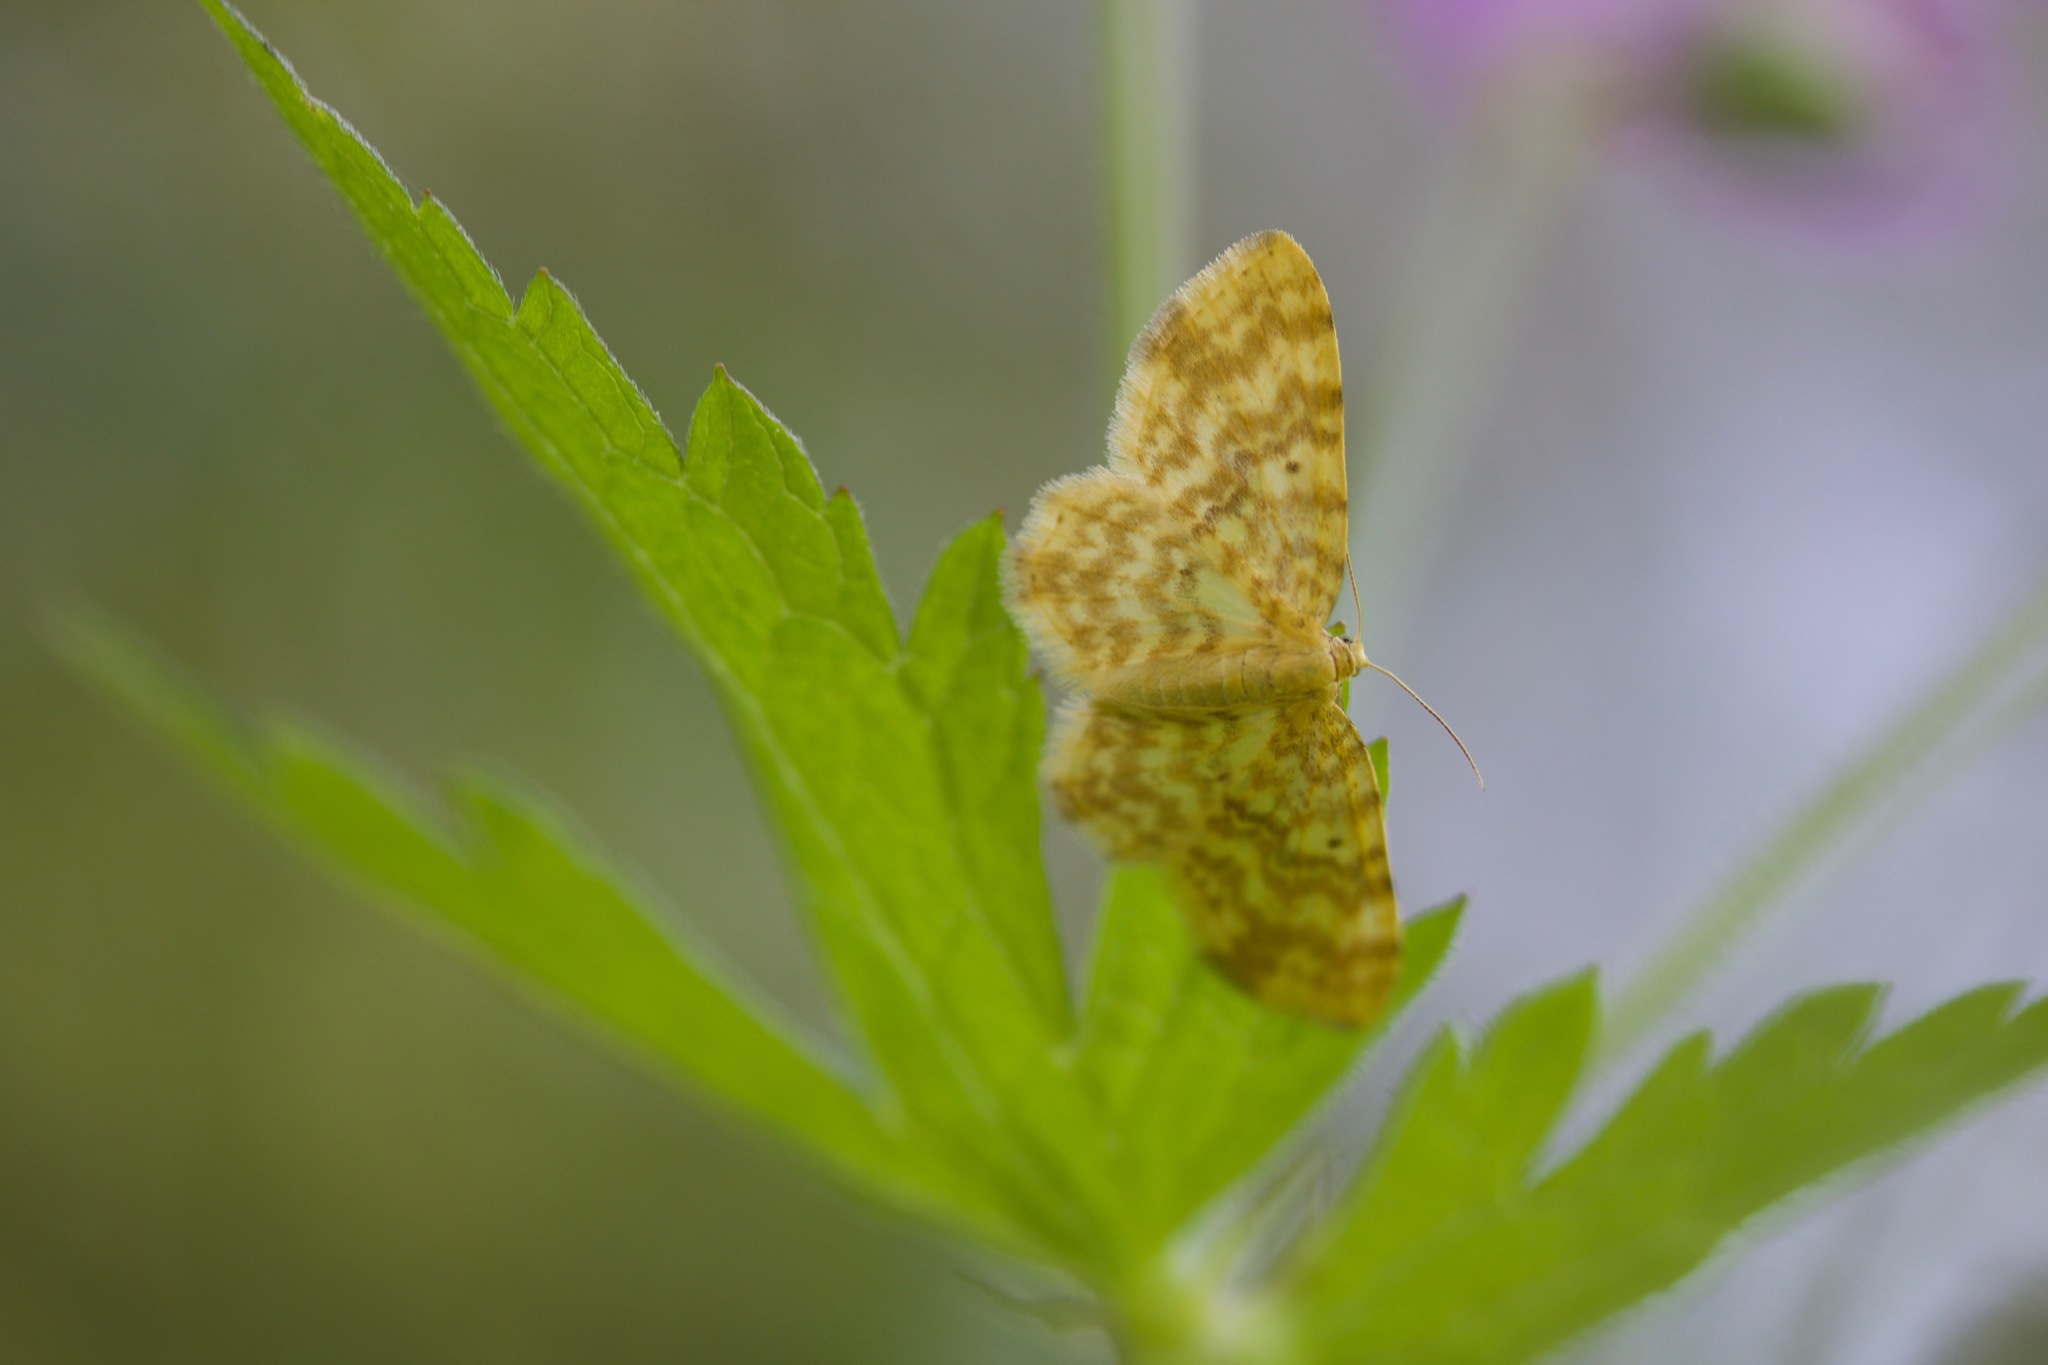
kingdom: Animalia
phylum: Arthropoda
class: Insecta
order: Lepidoptera
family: Geometridae
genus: Hydrelia
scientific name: Hydrelia flammeolaria
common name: Small yellow wave
